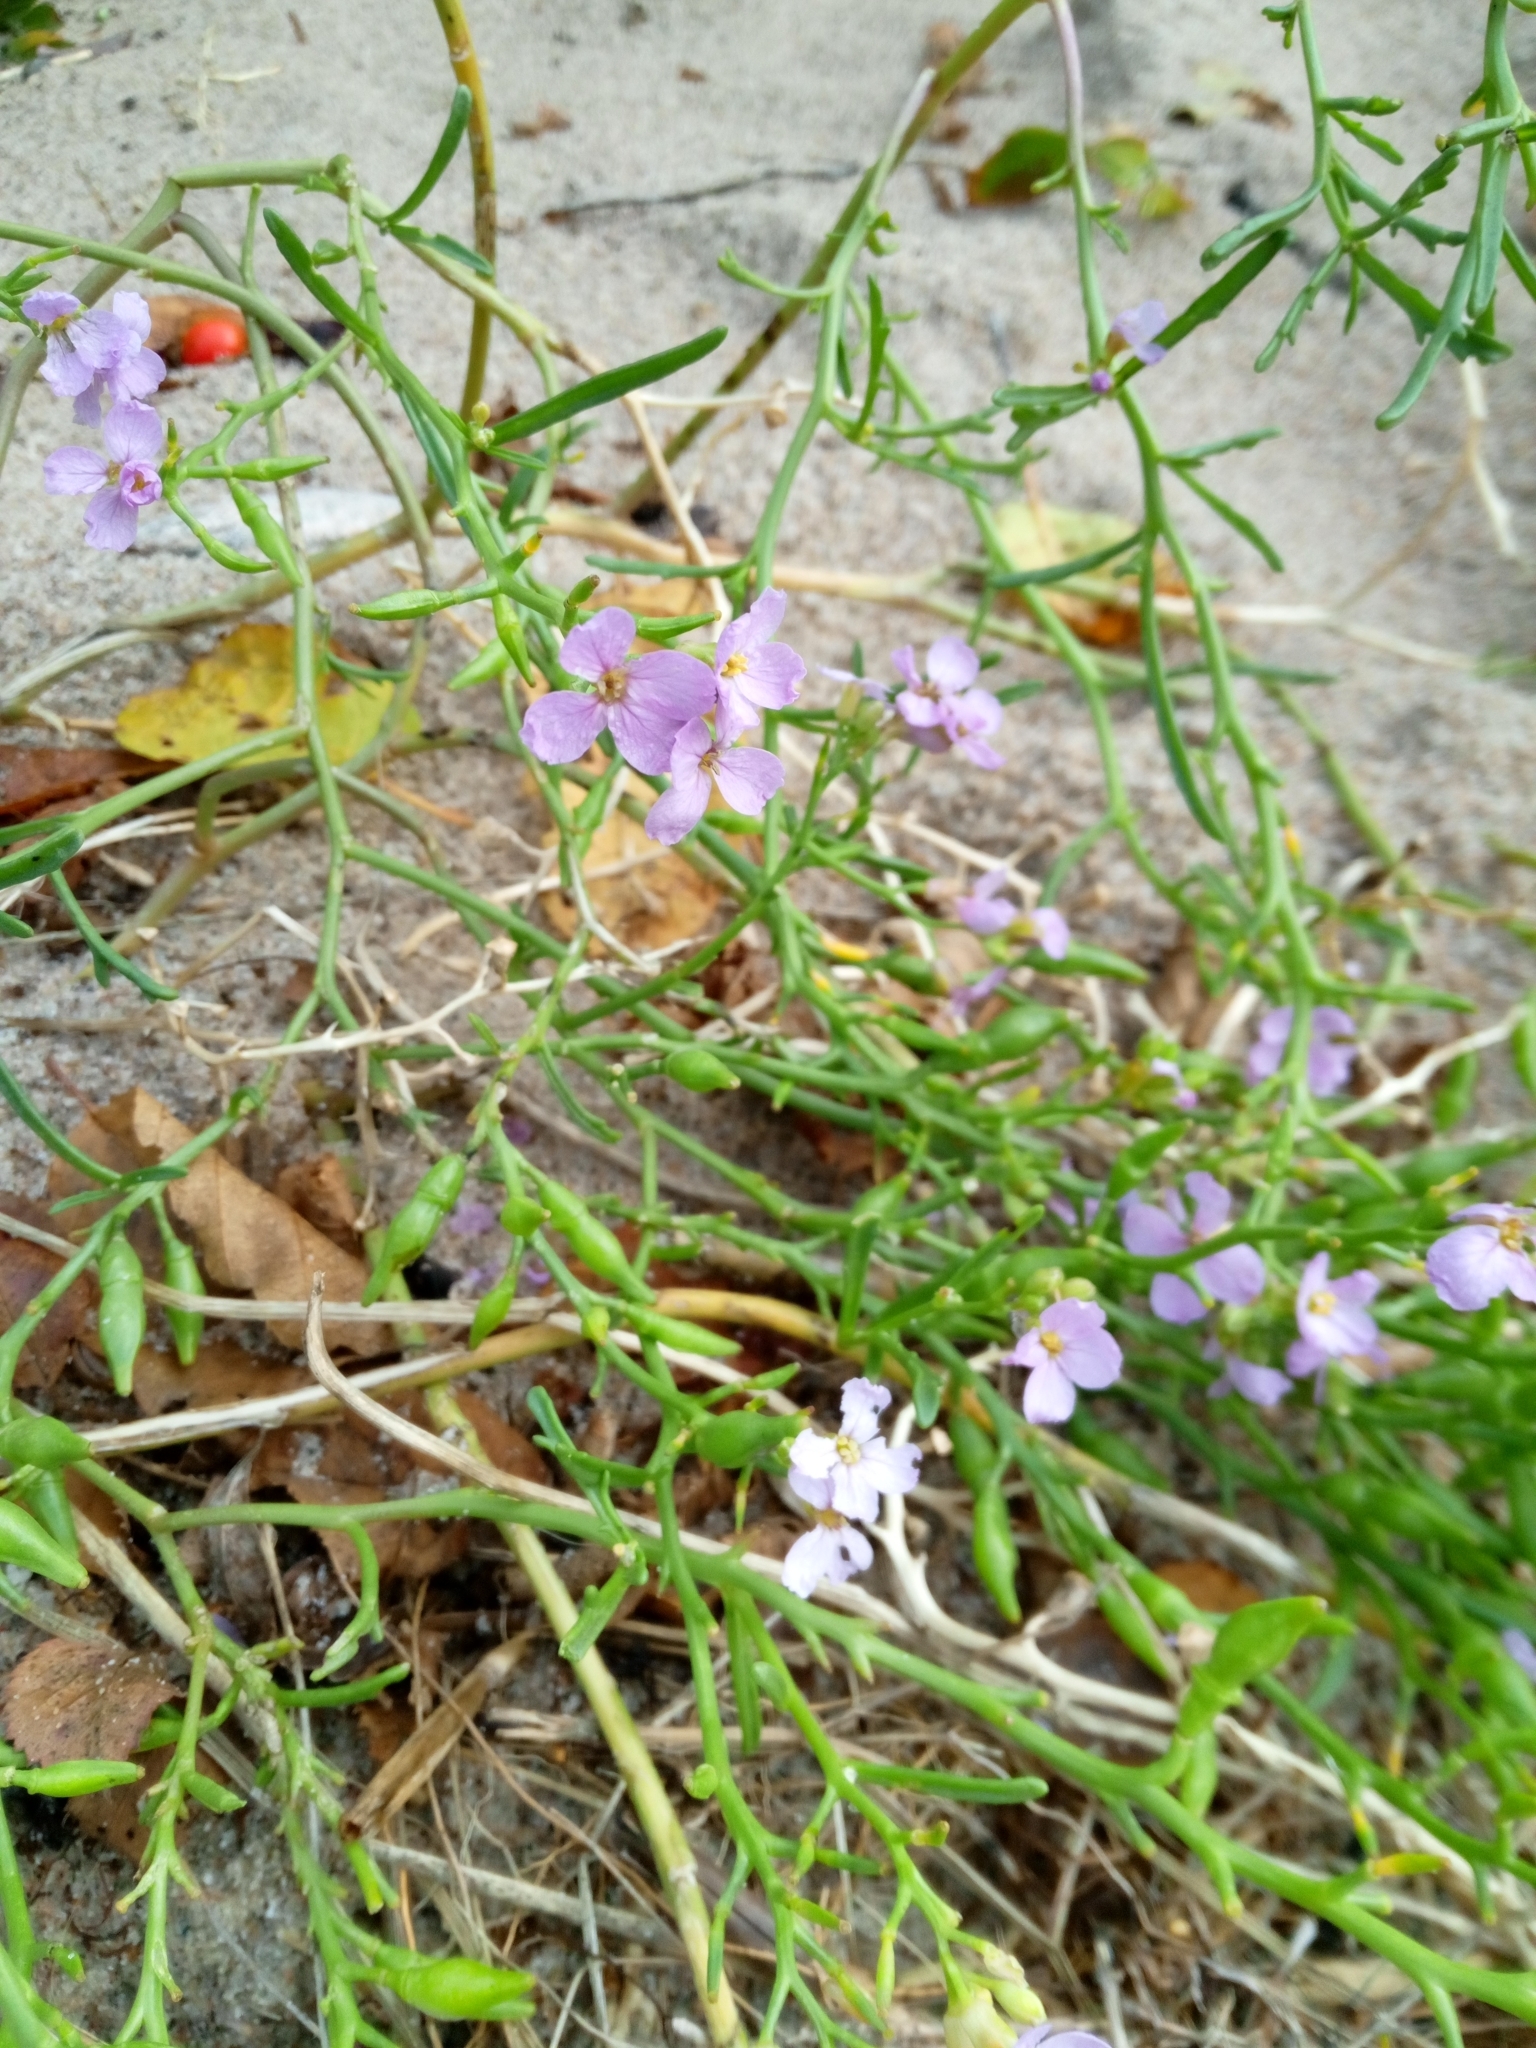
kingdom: Plantae
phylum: Tracheophyta
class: Magnoliopsida
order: Brassicales
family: Brassicaceae
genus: Cakile
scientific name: Cakile maritima
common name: Sea rocket
